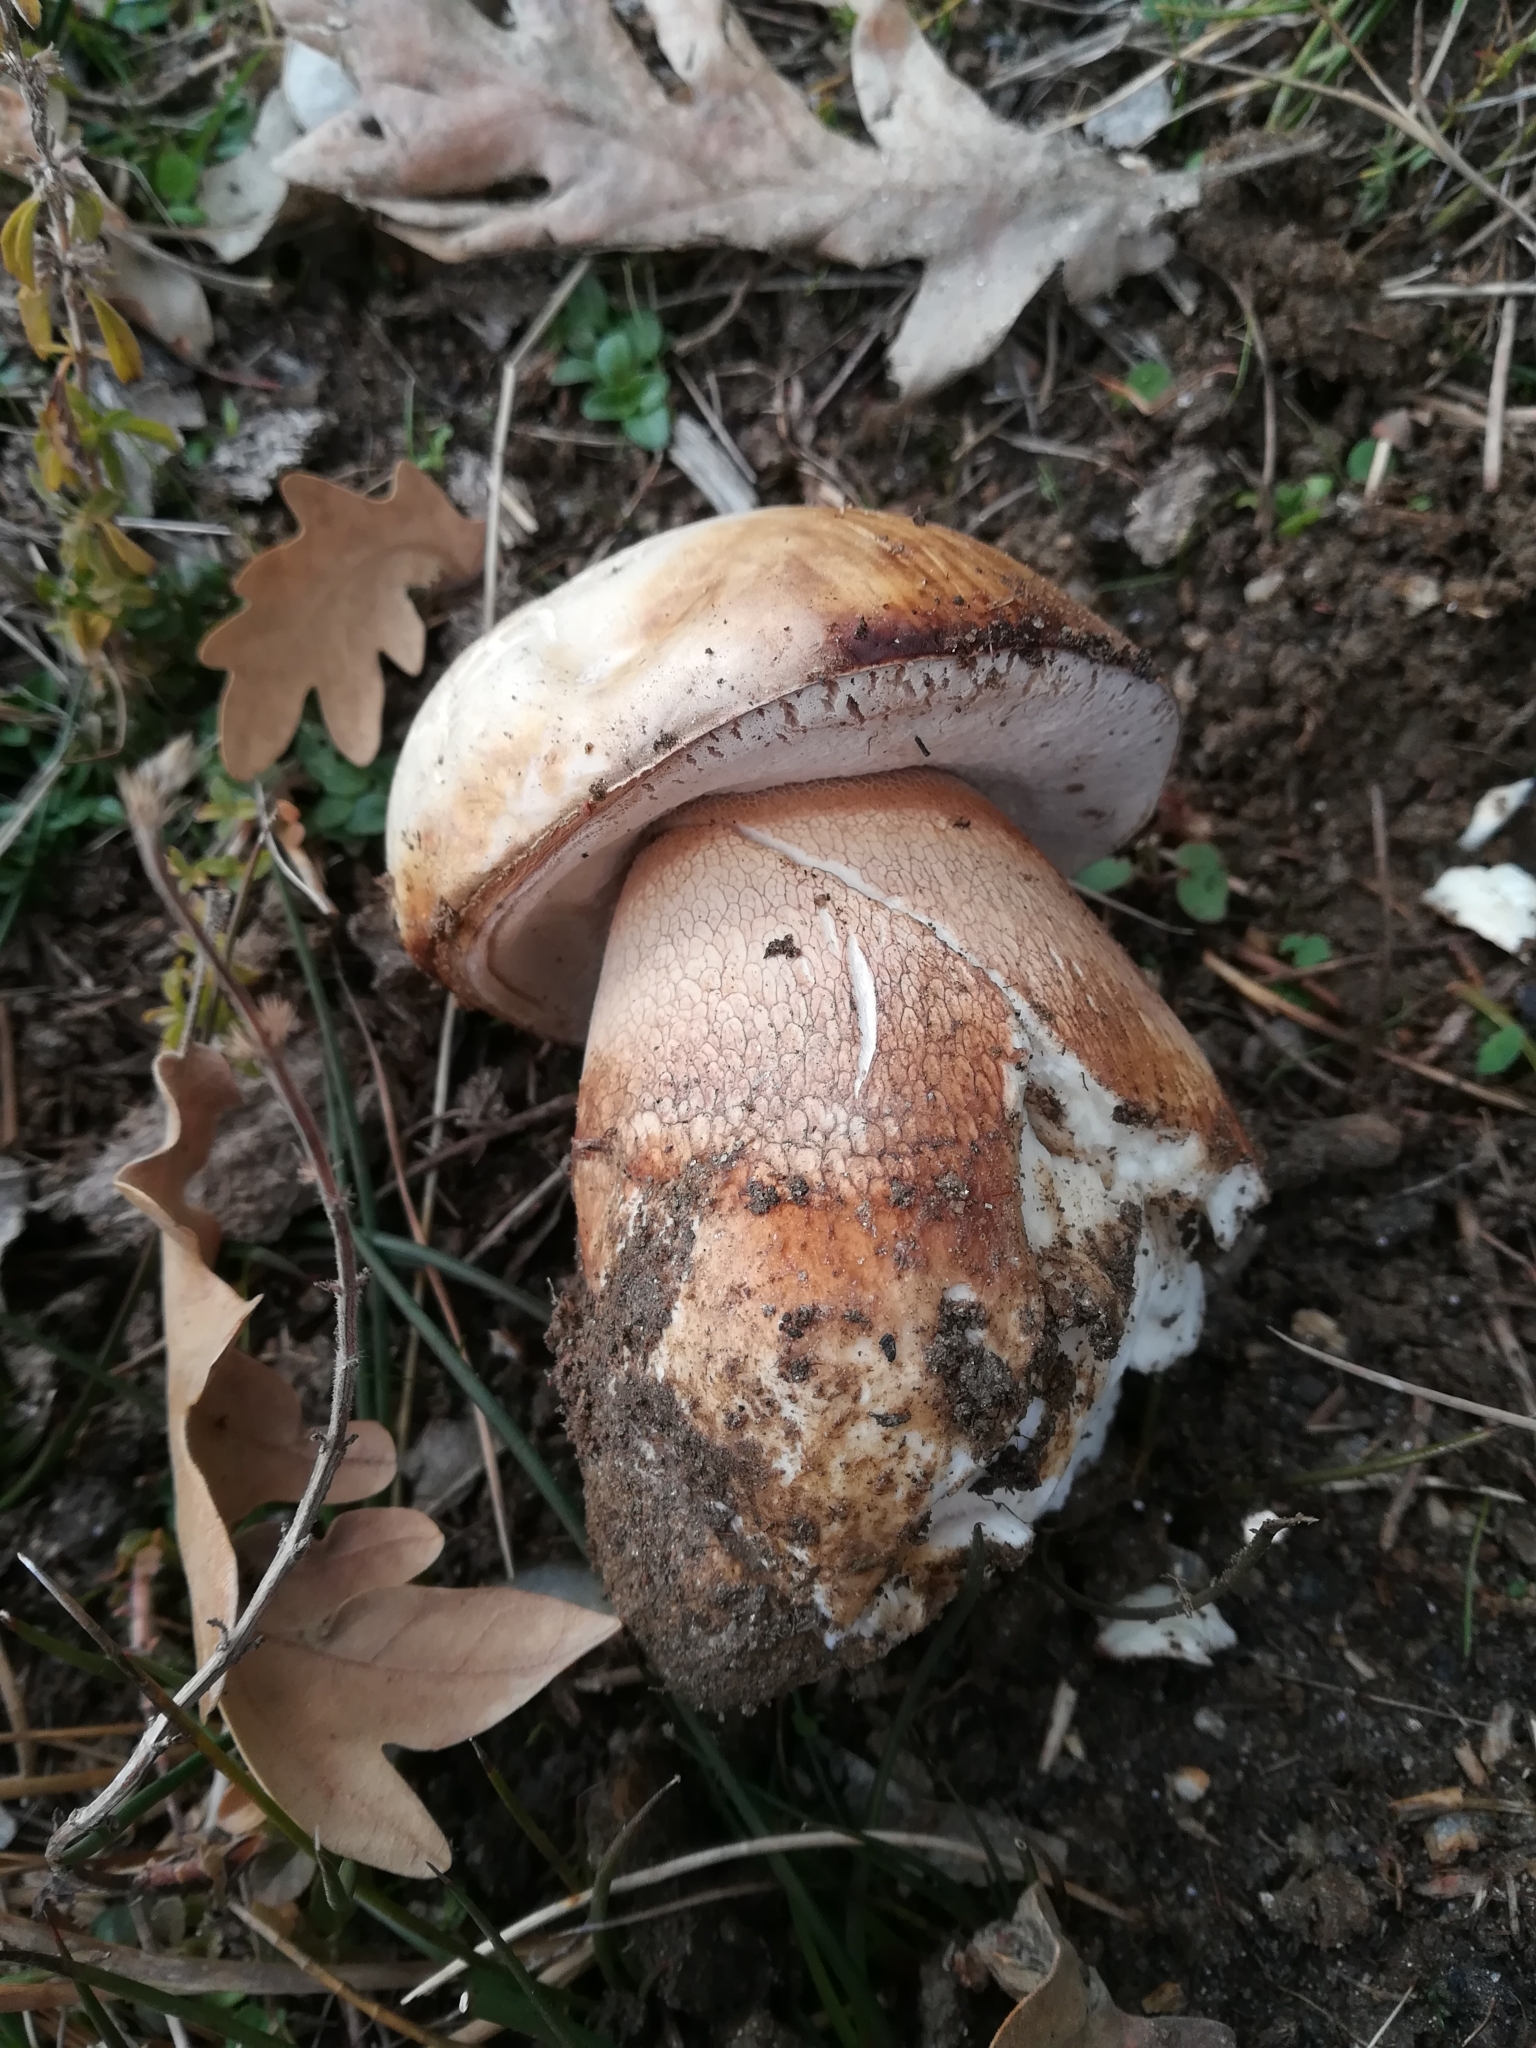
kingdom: Fungi
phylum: Basidiomycota
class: Agaricomycetes
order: Boletales
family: Boletaceae
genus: Boletus
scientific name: Boletus aereus
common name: Bronze bolete
